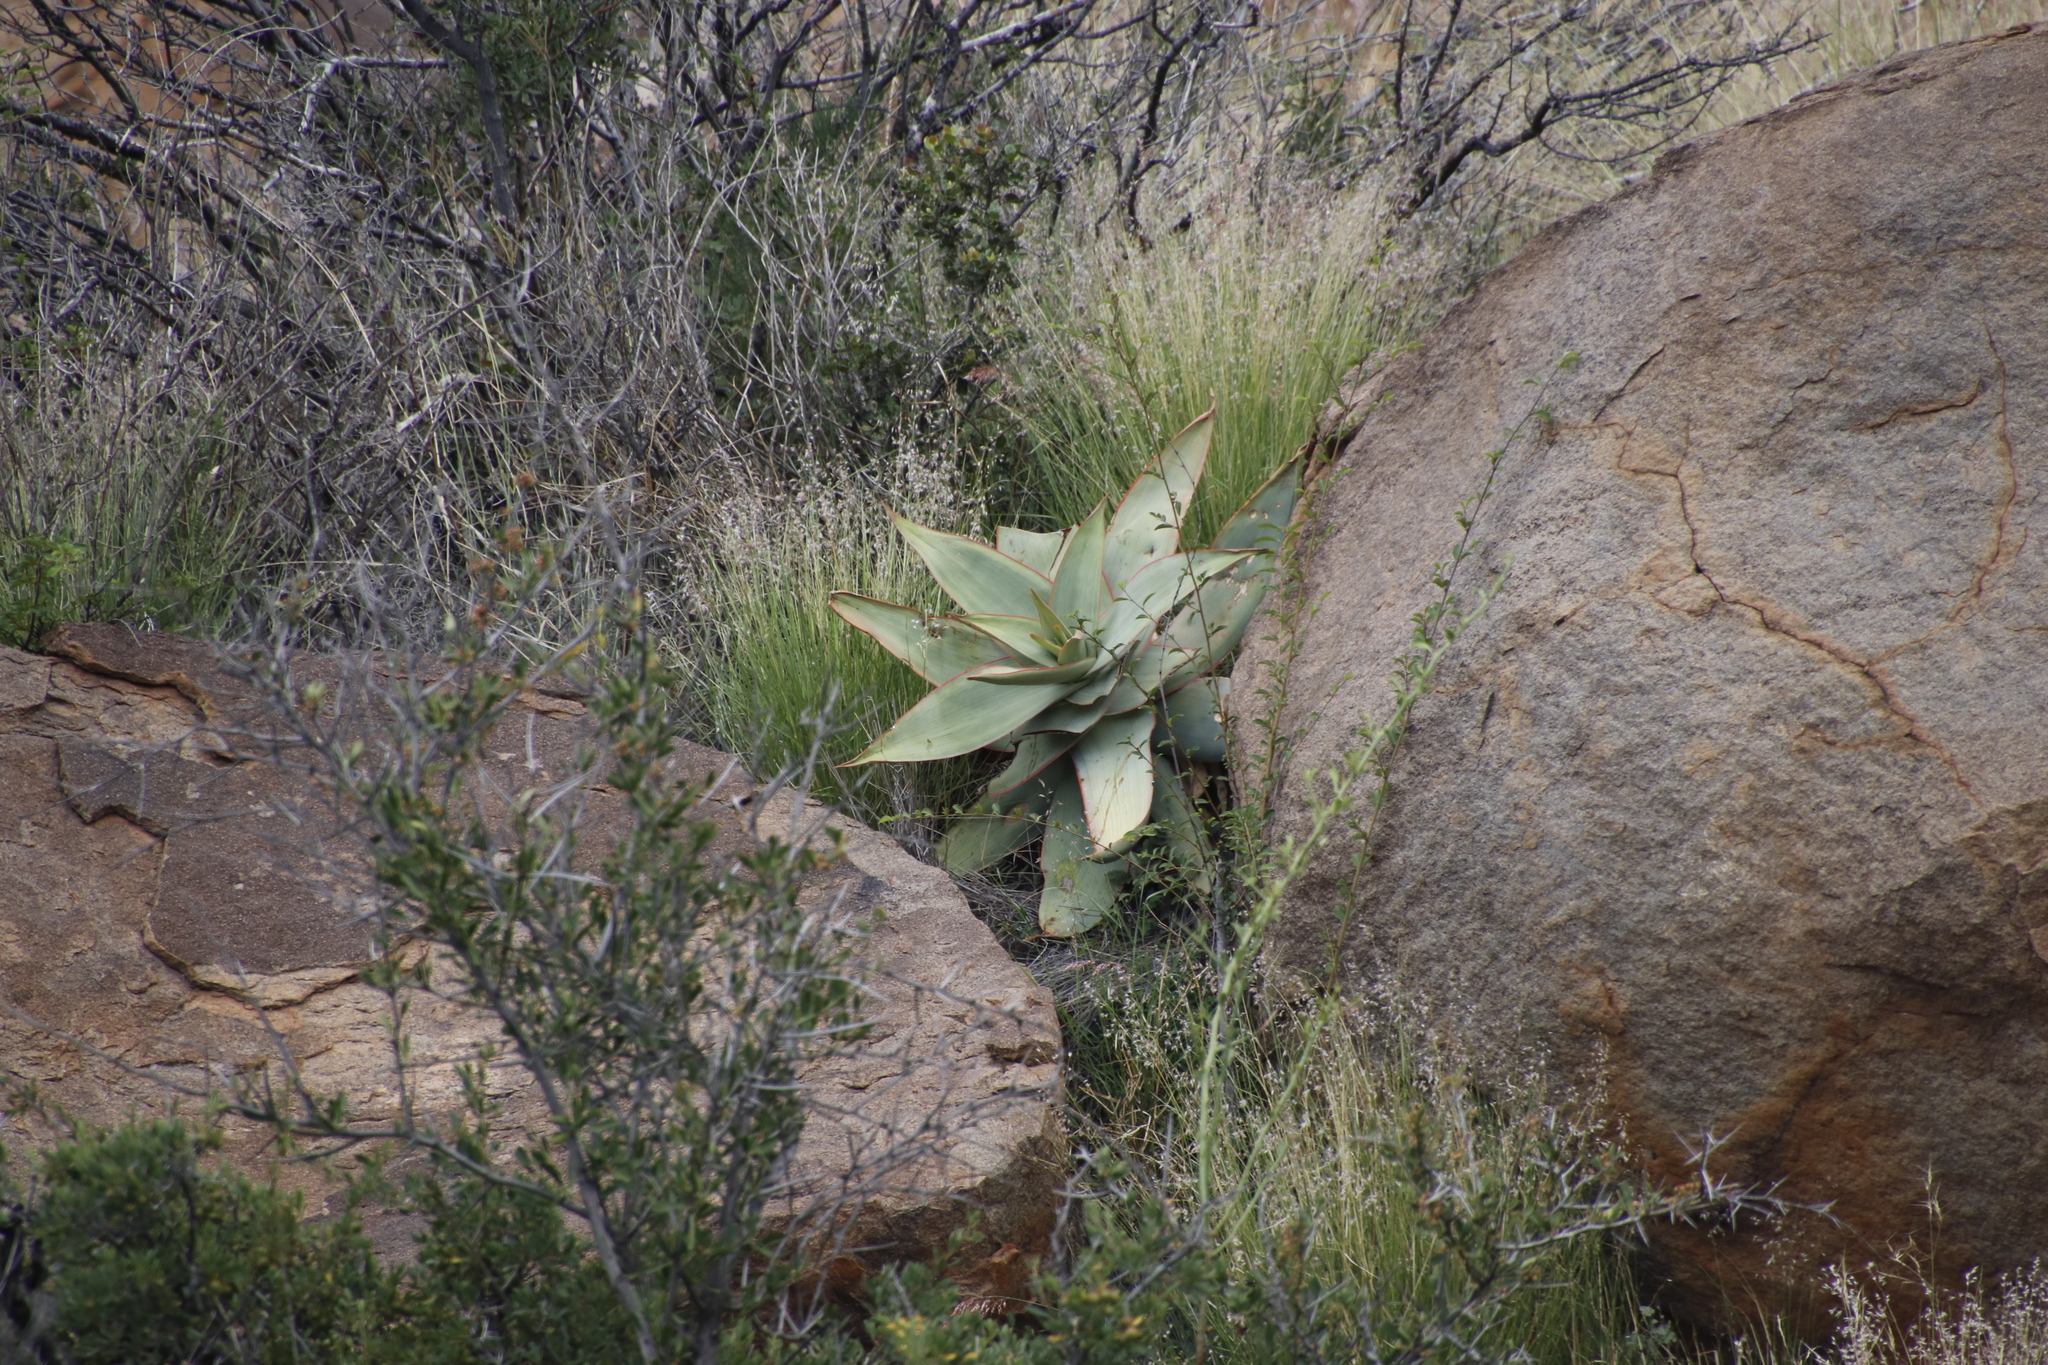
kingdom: Plantae
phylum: Tracheophyta
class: Liliopsida
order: Asparagales
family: Asphodelaceae
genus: Aloe
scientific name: Aloe striata
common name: Coral aloe
